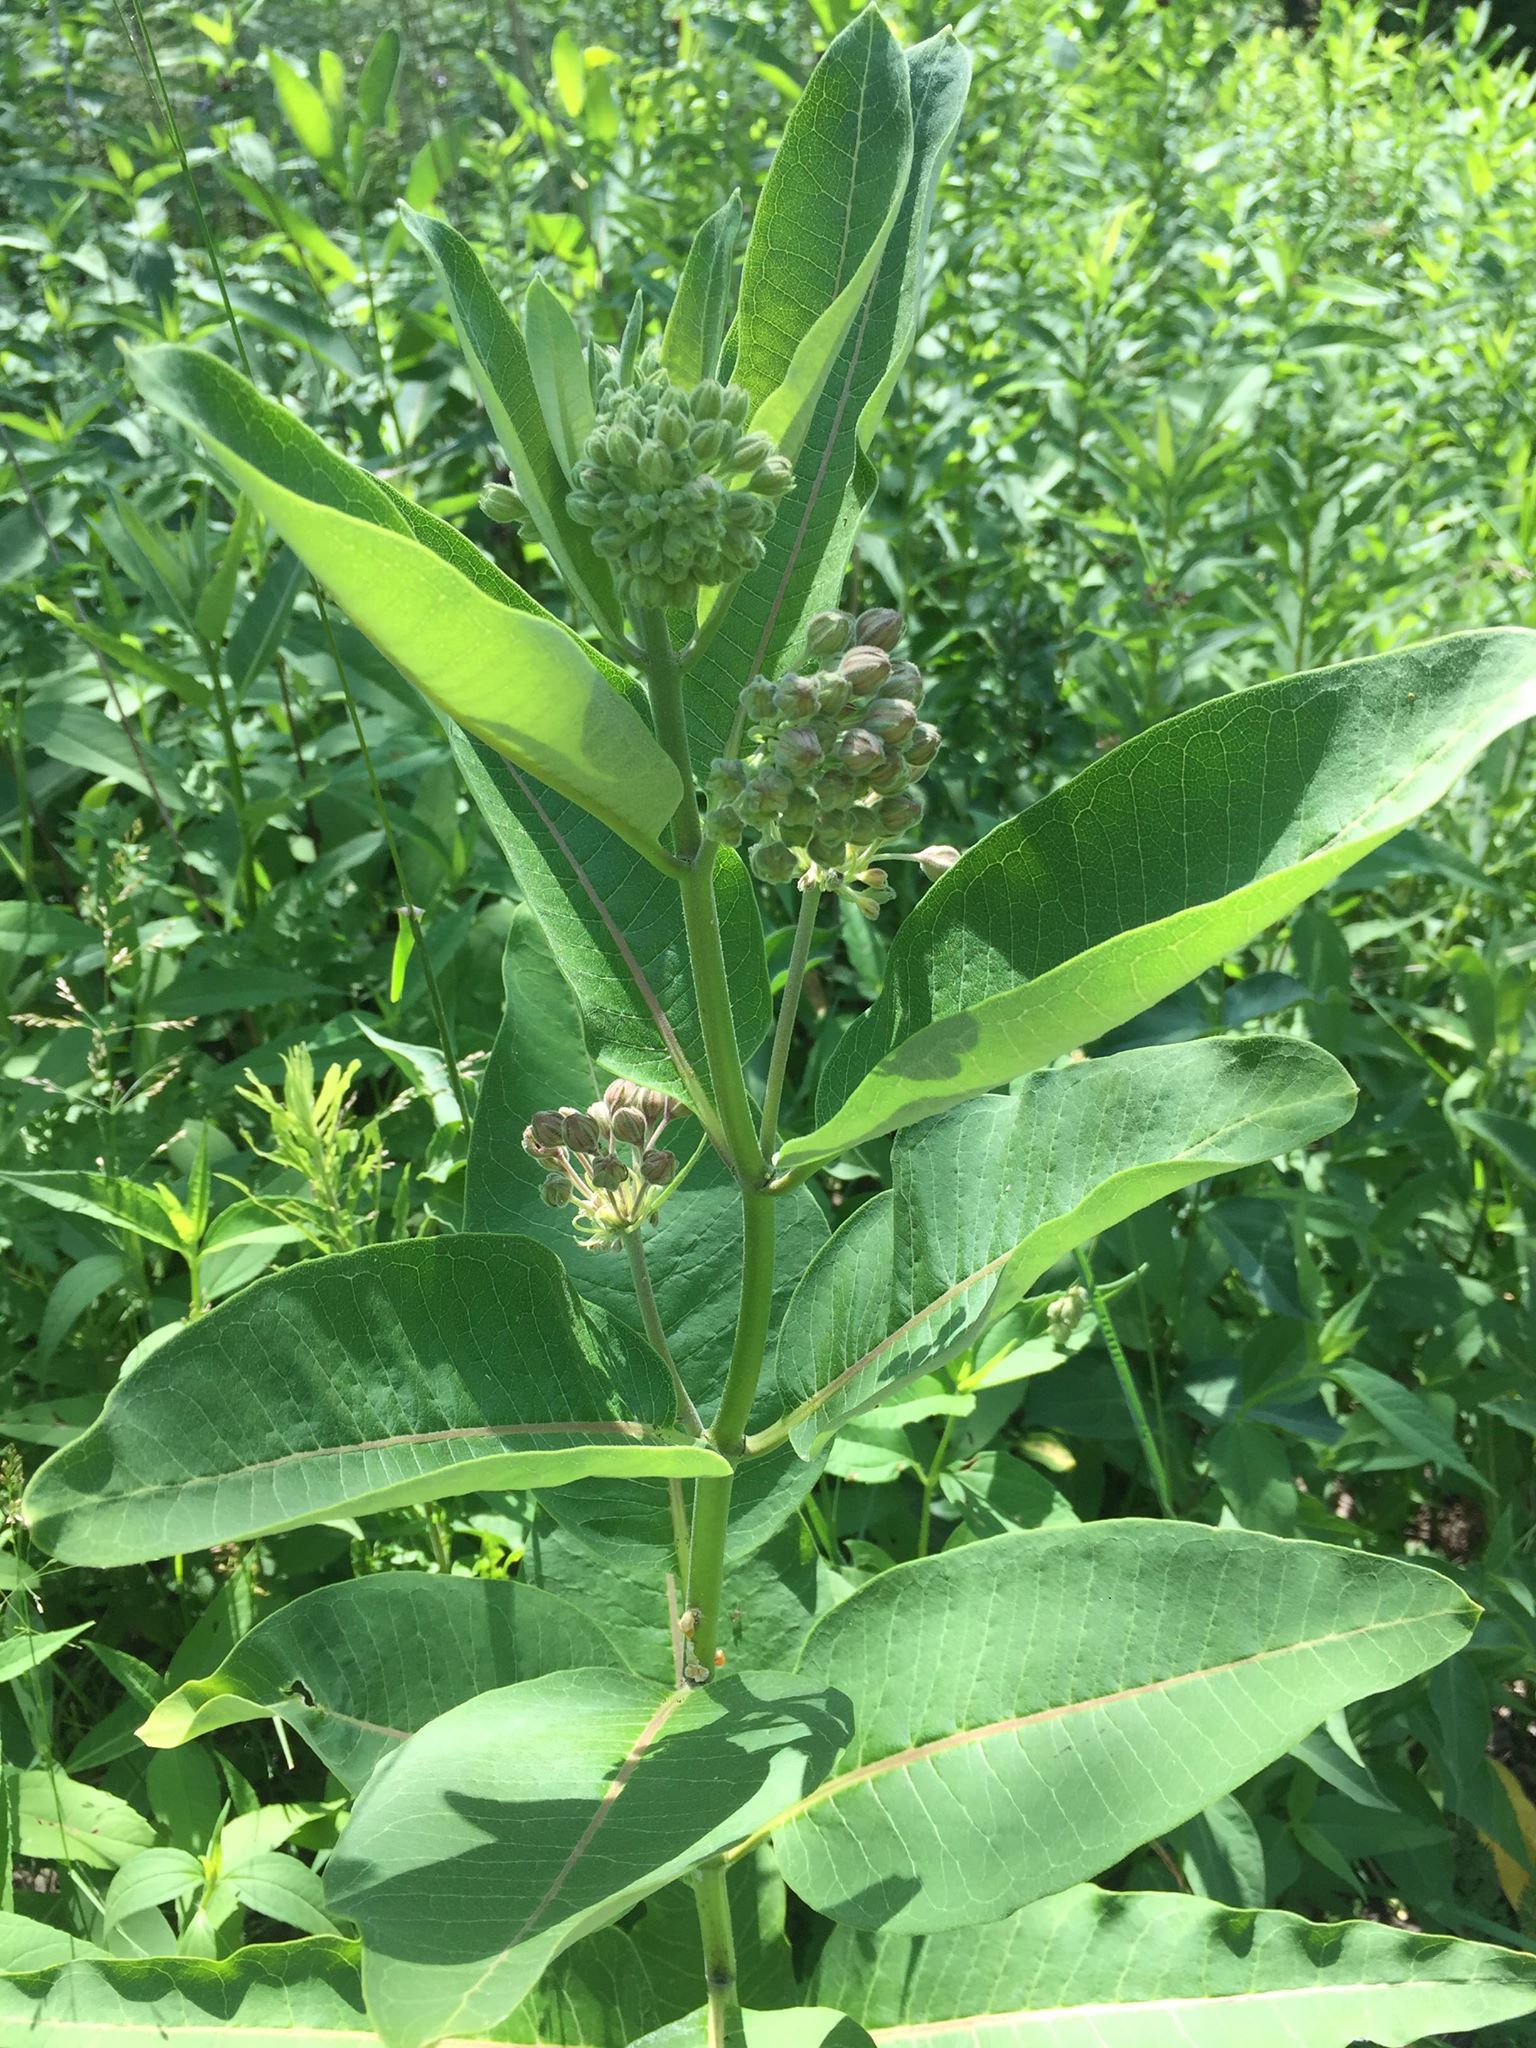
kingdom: Plantae
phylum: Tracheophyta
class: Magnoliopsida
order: Gentianales
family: Apocynaceae
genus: Asclepias
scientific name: Asclepias syriaca
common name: Common milkweed
